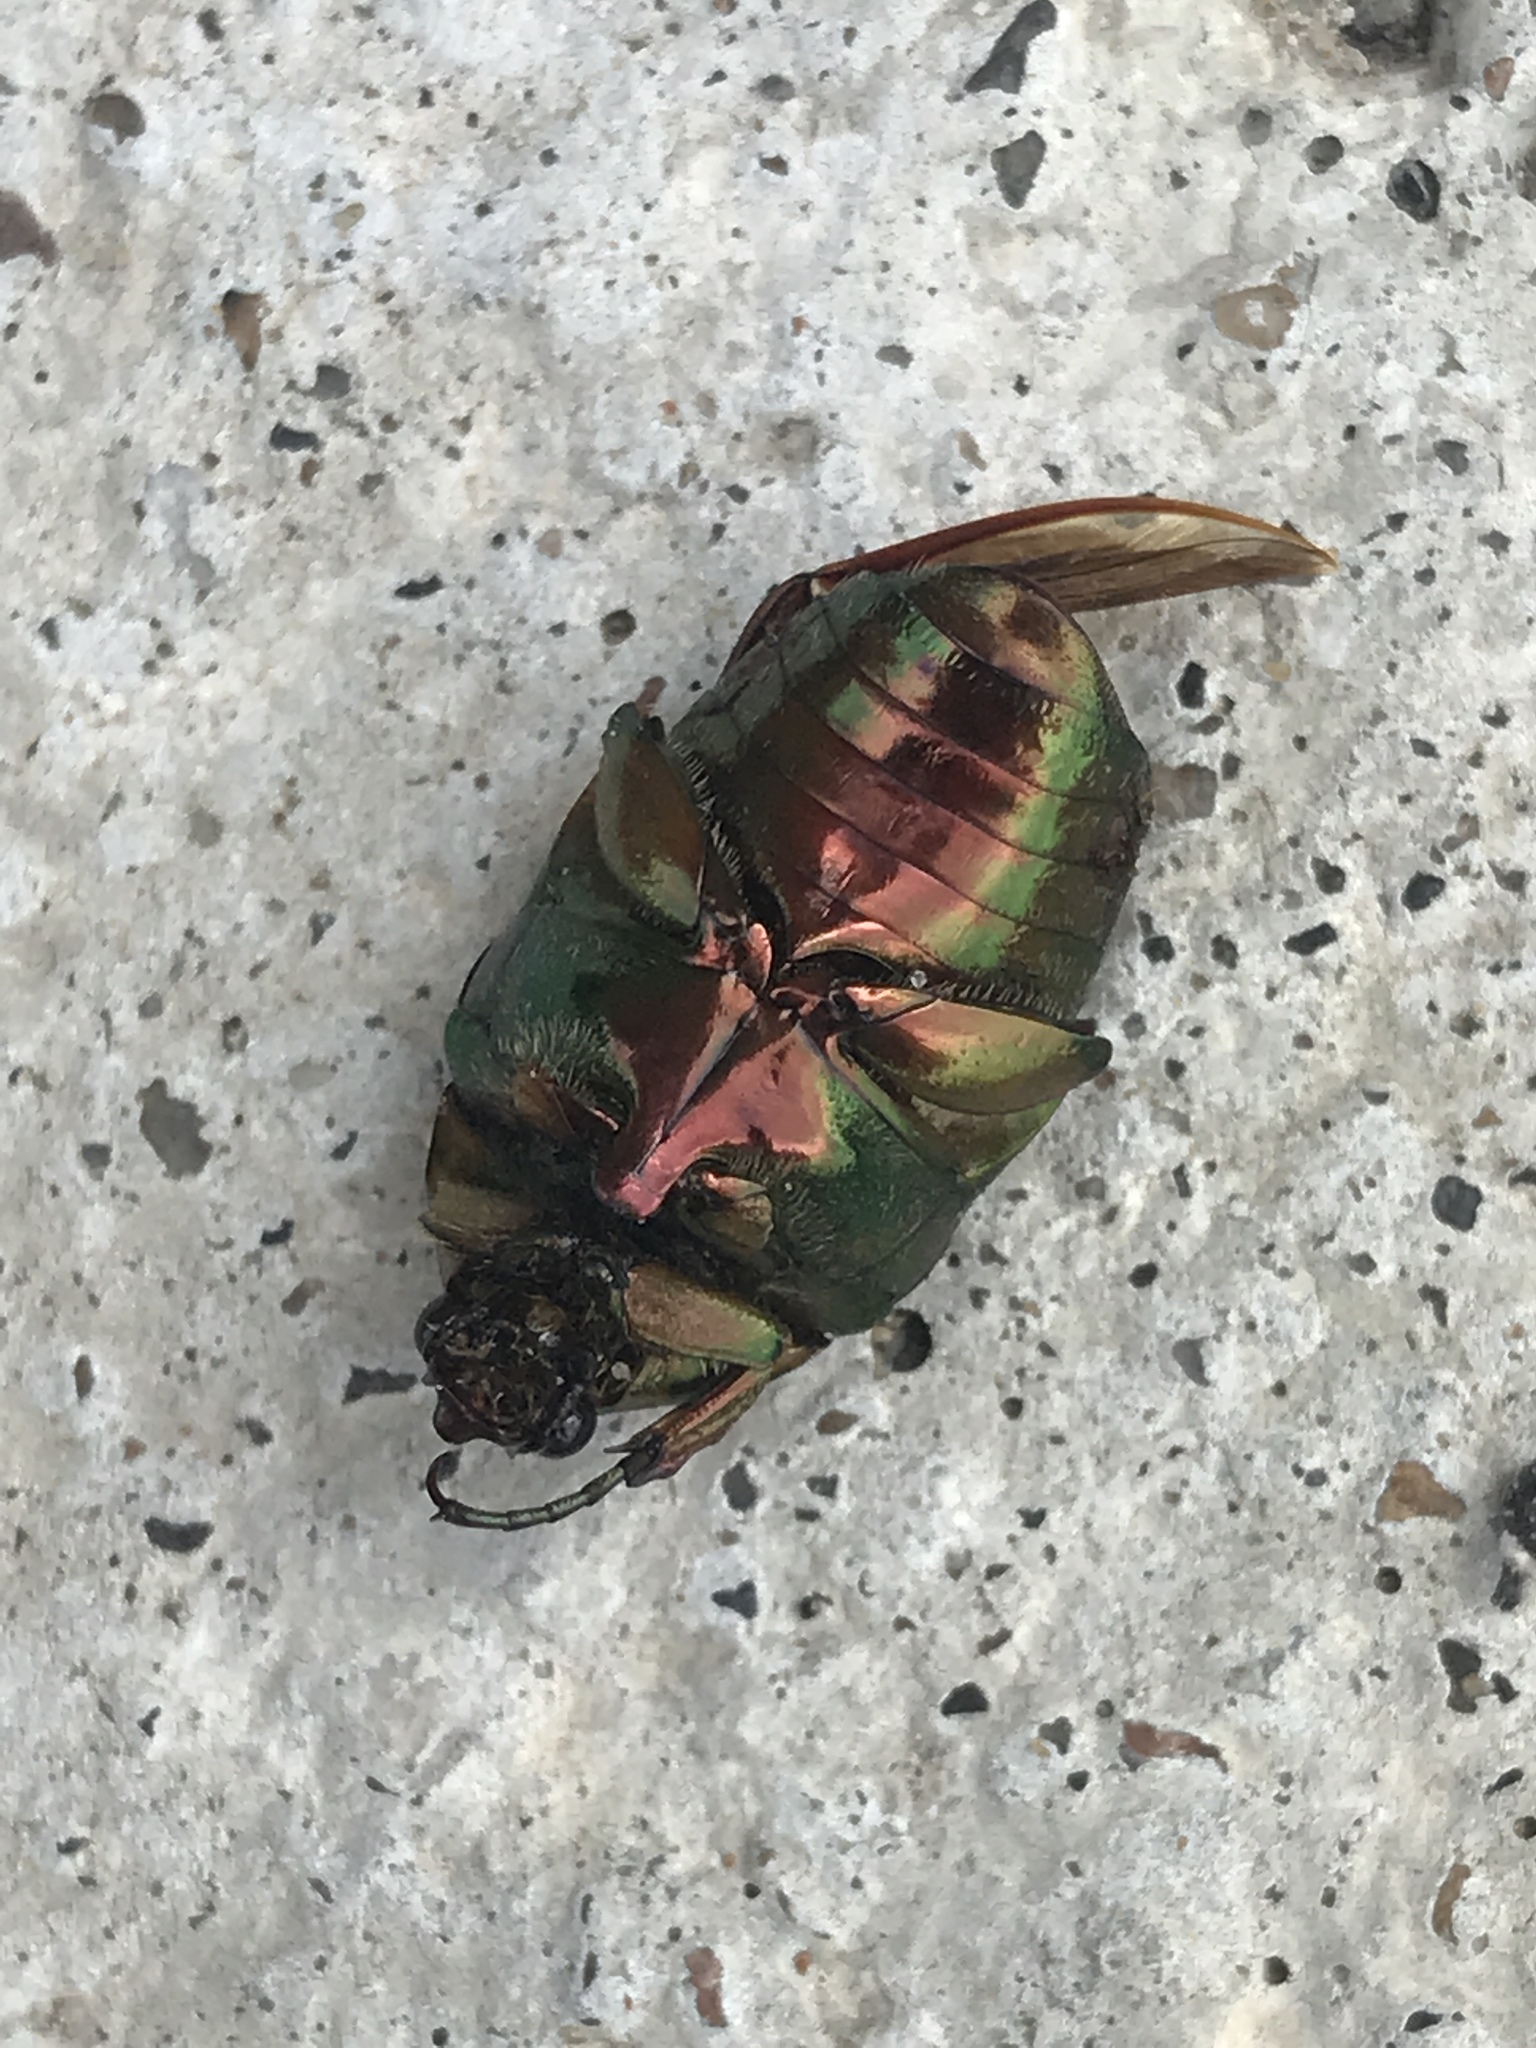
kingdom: Animalia
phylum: Arthropoda
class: Insecta
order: Coleoptera
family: Scarabaeidae
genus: Cotinis
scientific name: Cotinis nitida
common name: Common green june beetle
